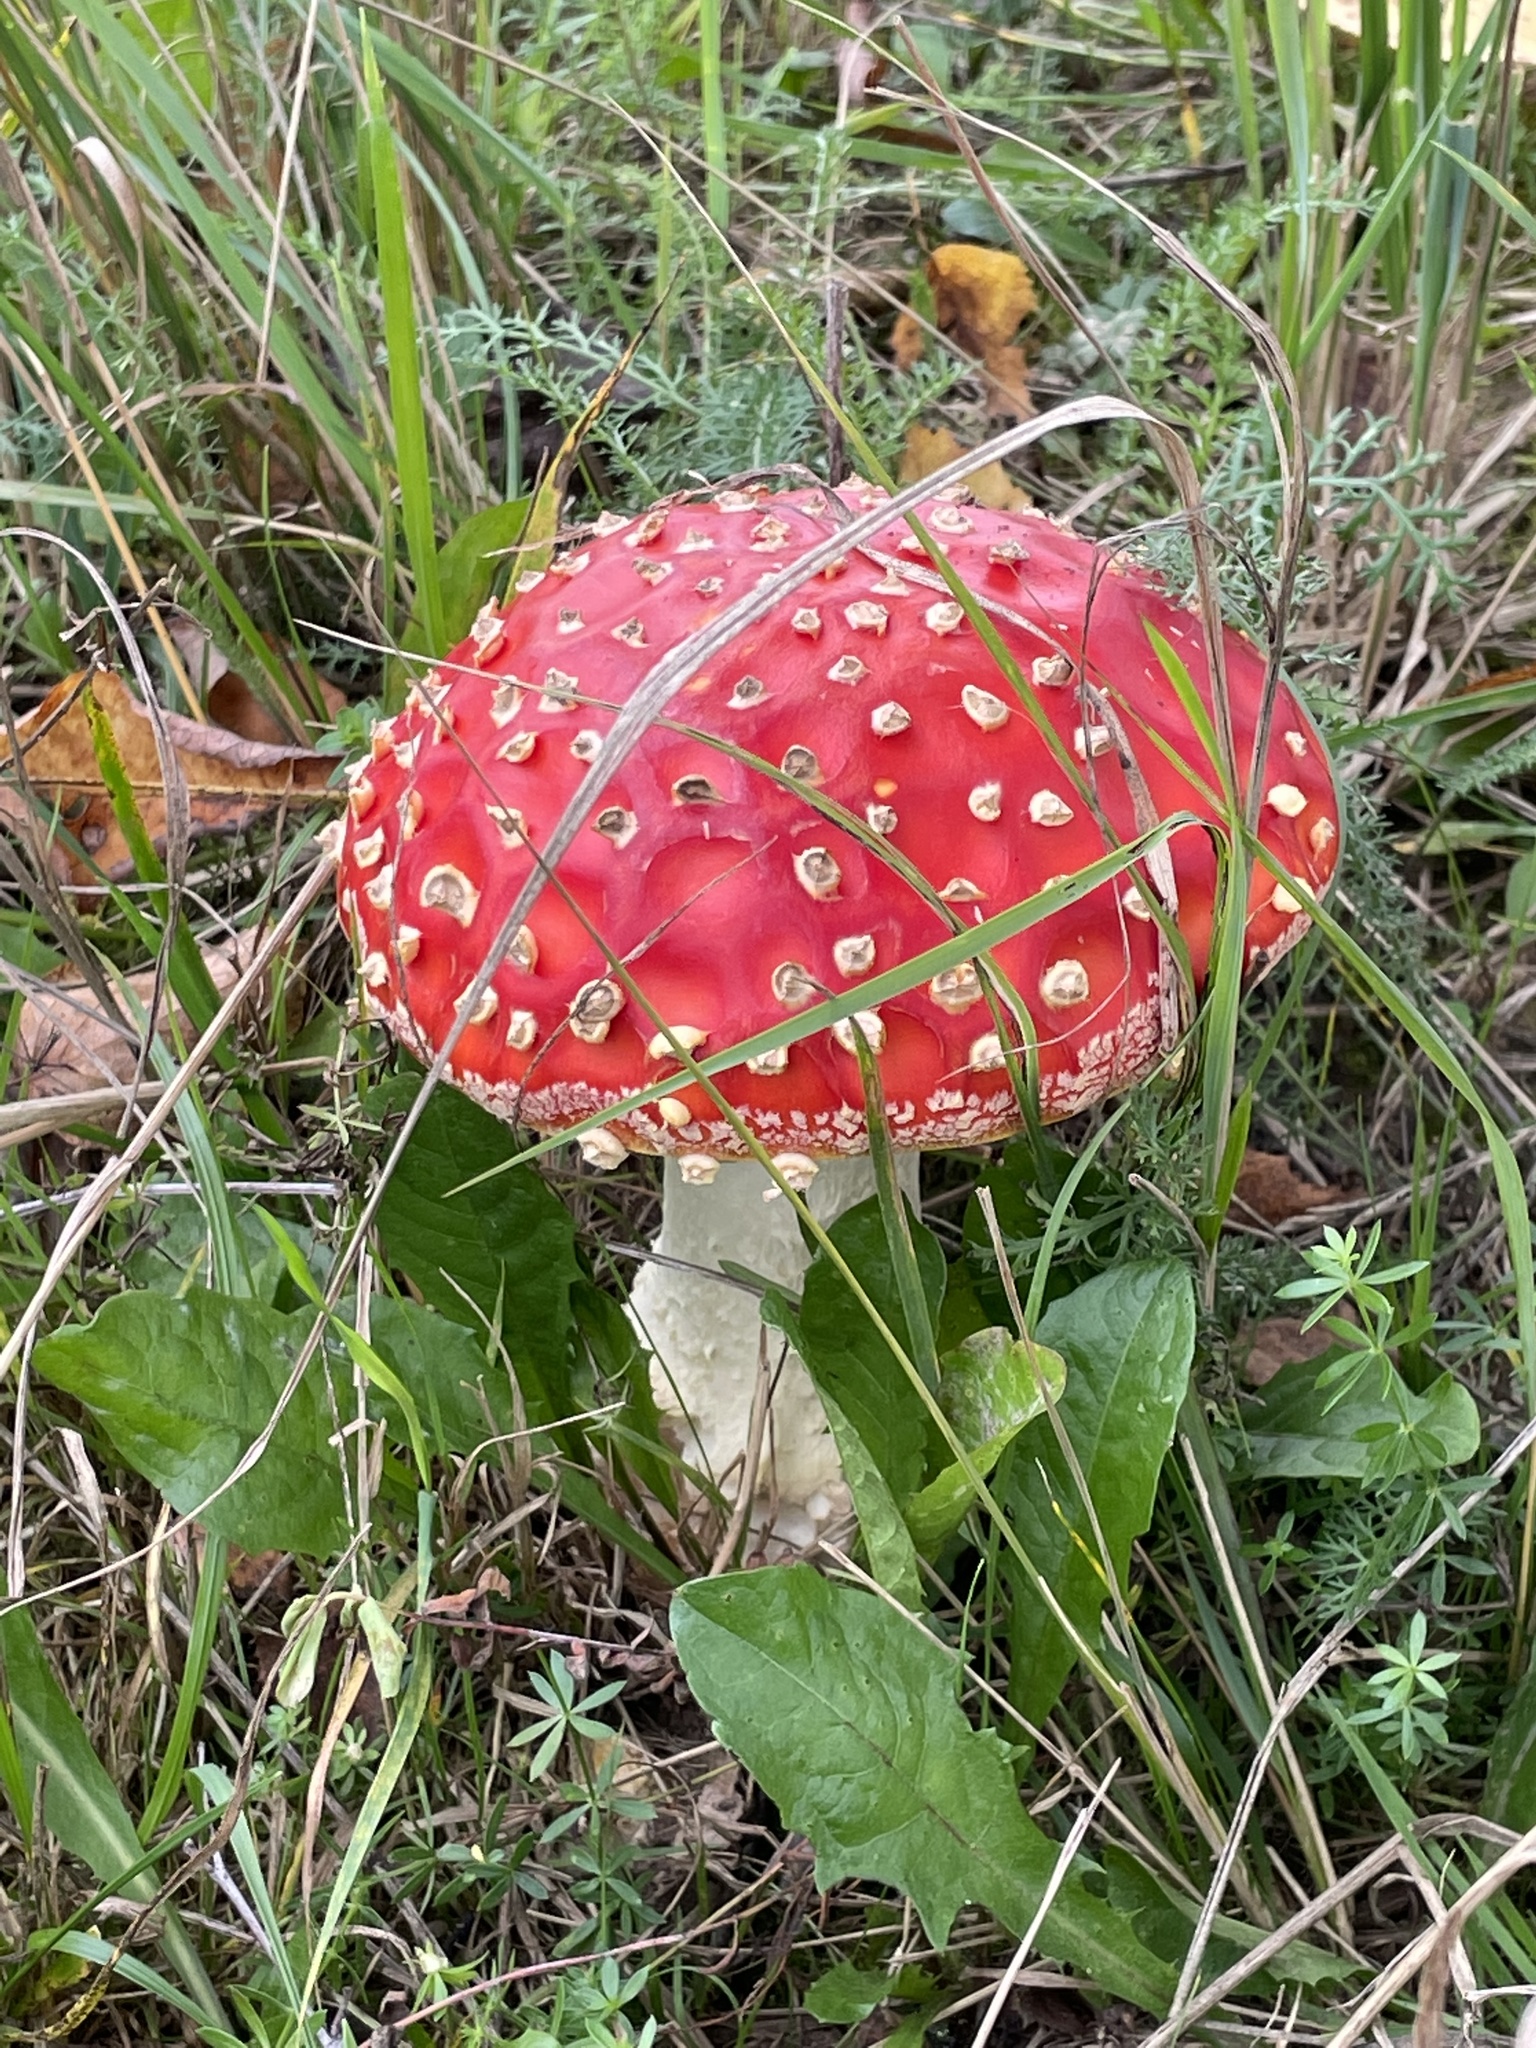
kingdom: Fungi
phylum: Basidiomycota
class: Agaricomycetes
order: Agaricales
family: Amanitaceae
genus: Amanita
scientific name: Amanita muscaria
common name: Fly agaric
